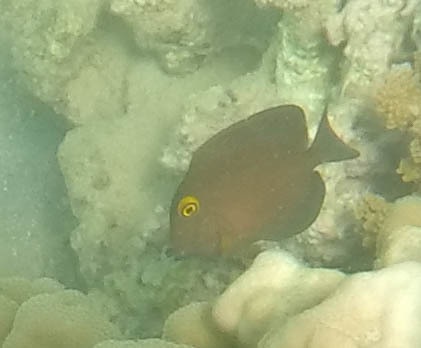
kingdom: Animalia
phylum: Chordata
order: Perciformes
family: Acanthuridae
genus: Ctenochaetus
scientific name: Ctenochaetus strigosus
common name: Bristletoothed surgeonfish
